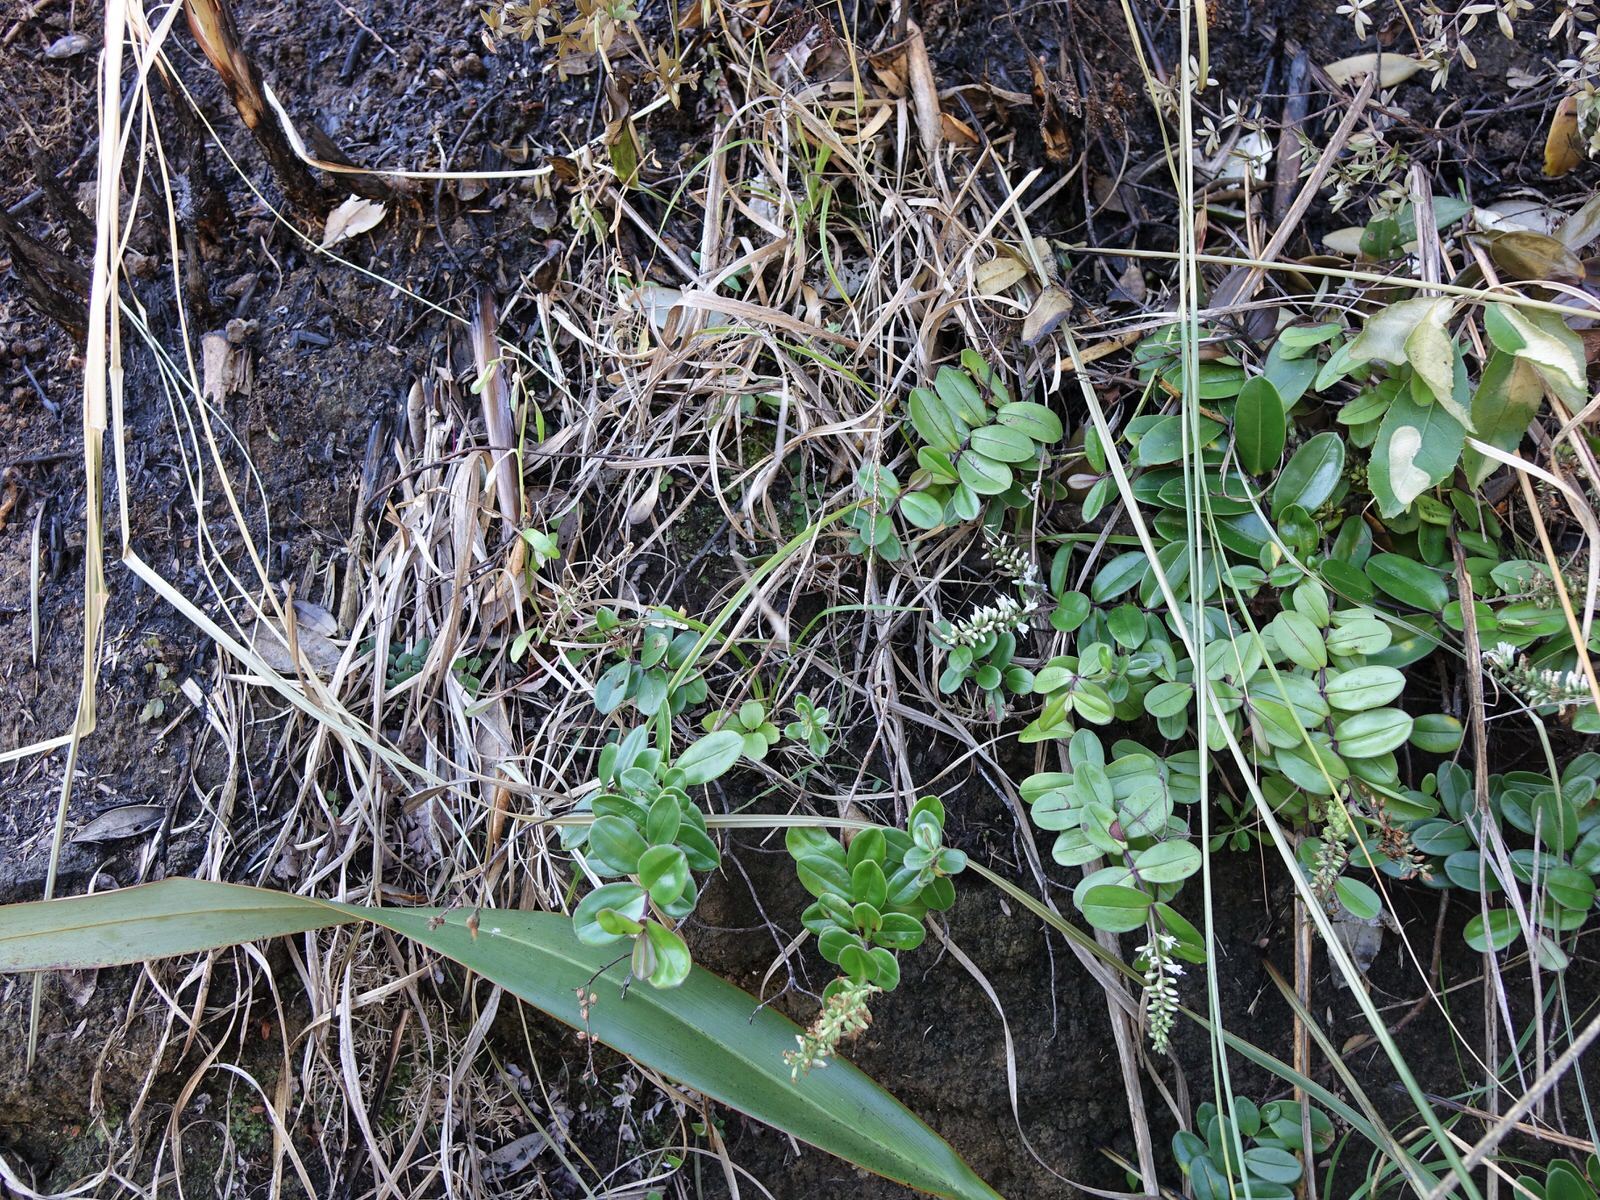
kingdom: Plantae
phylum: Tracheophyta
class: Magnoliopsida
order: Lamiales
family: Plantaginaceae
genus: Veronica
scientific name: Veronica obtusata
